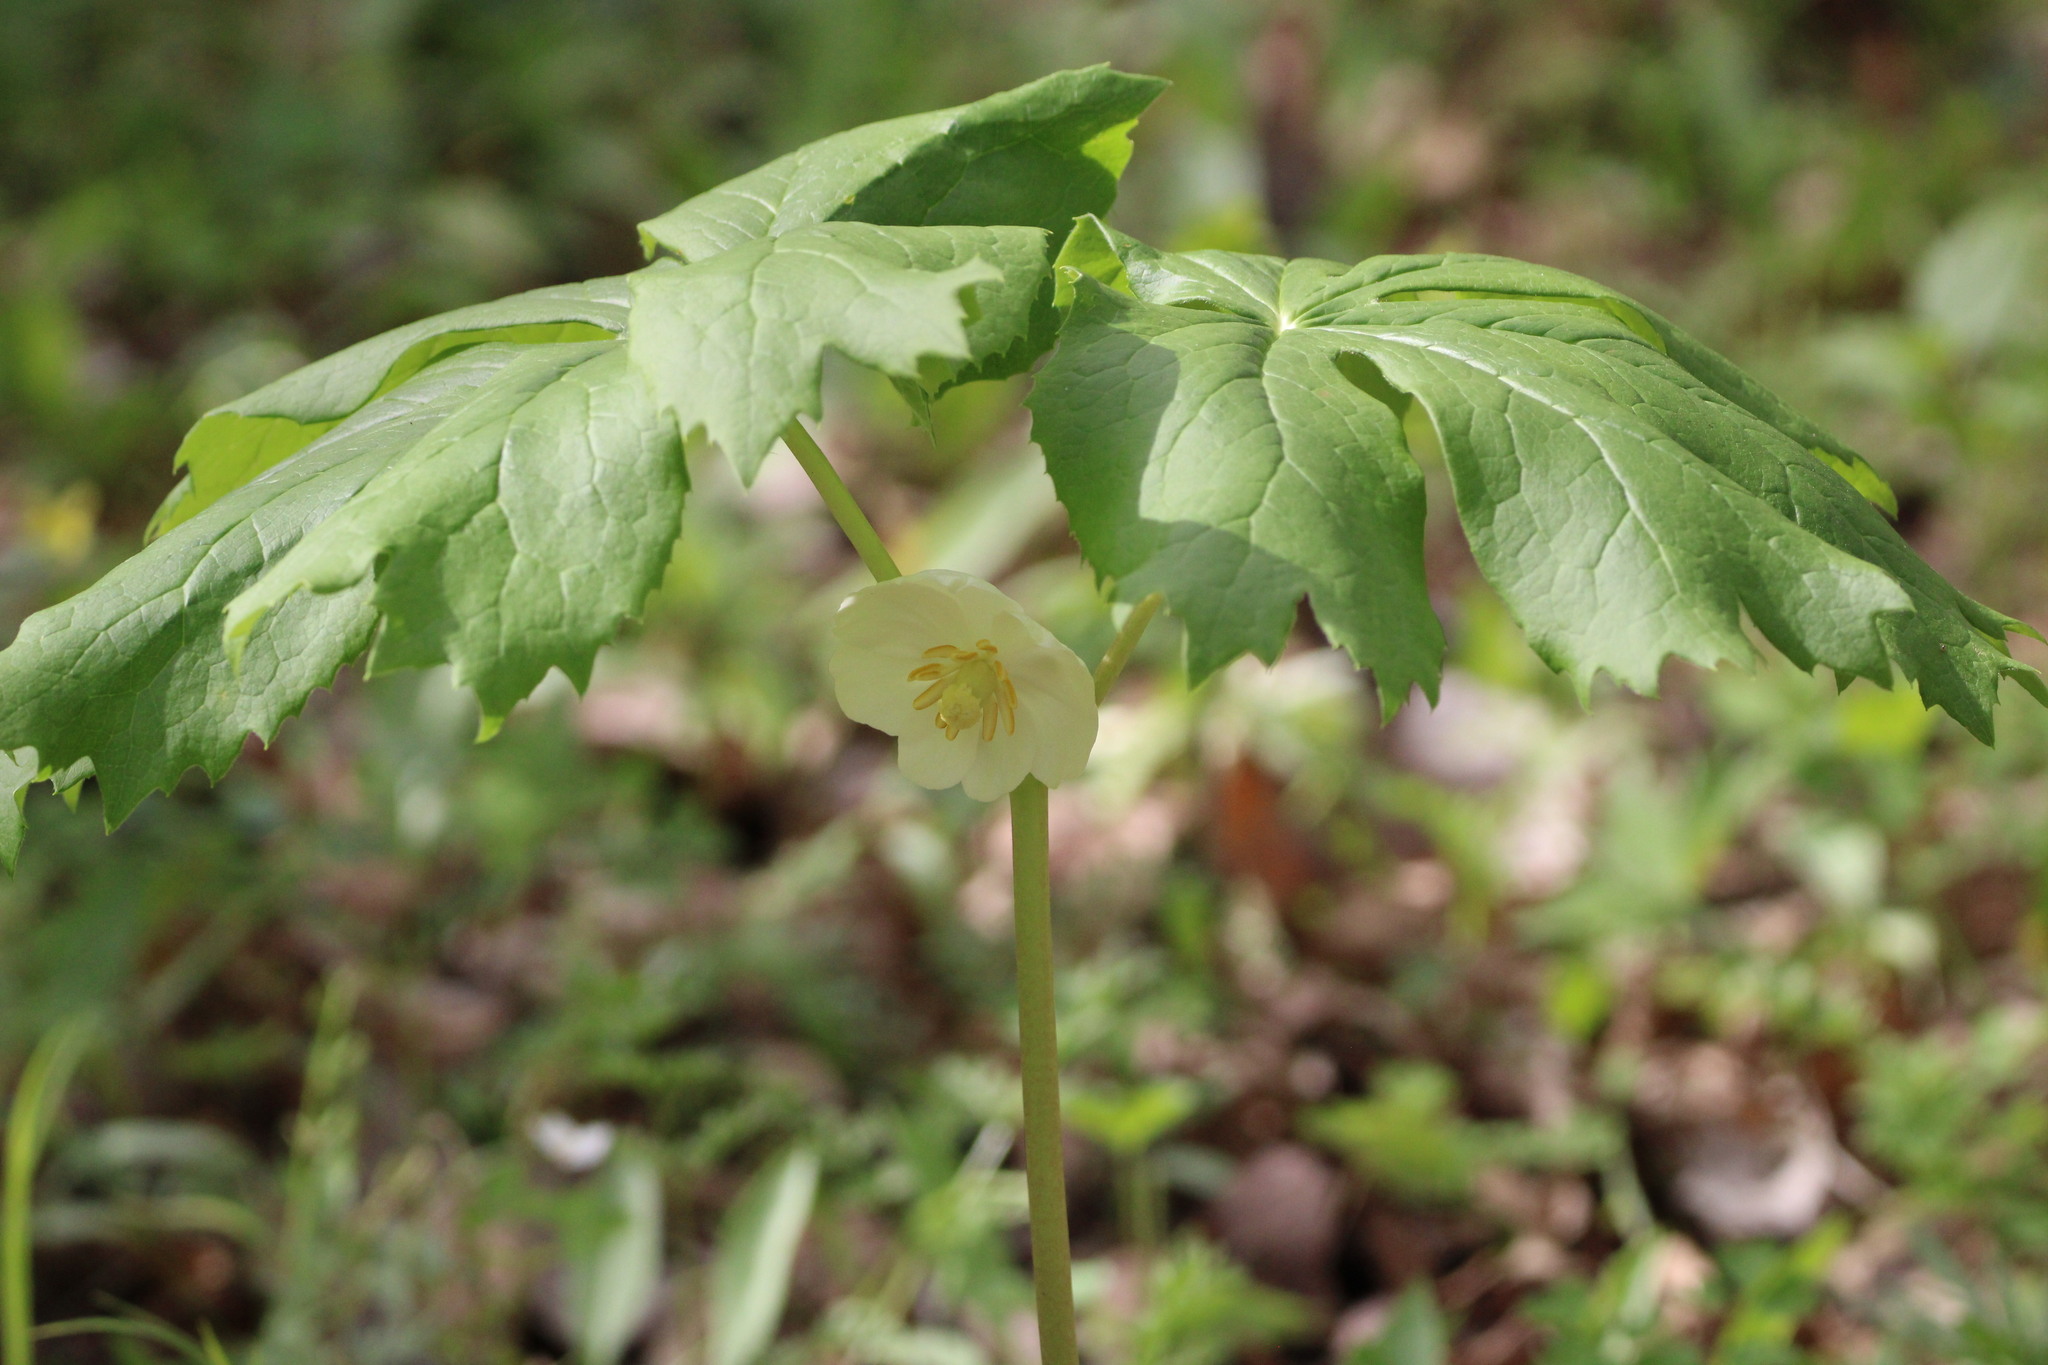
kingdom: Plantae
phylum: Tracheophyta
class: Magnoliopsida
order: Ranunculales
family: Berberidaceae
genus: Podophyllum
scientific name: Podophyllum peltatum
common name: Wild mandrake
